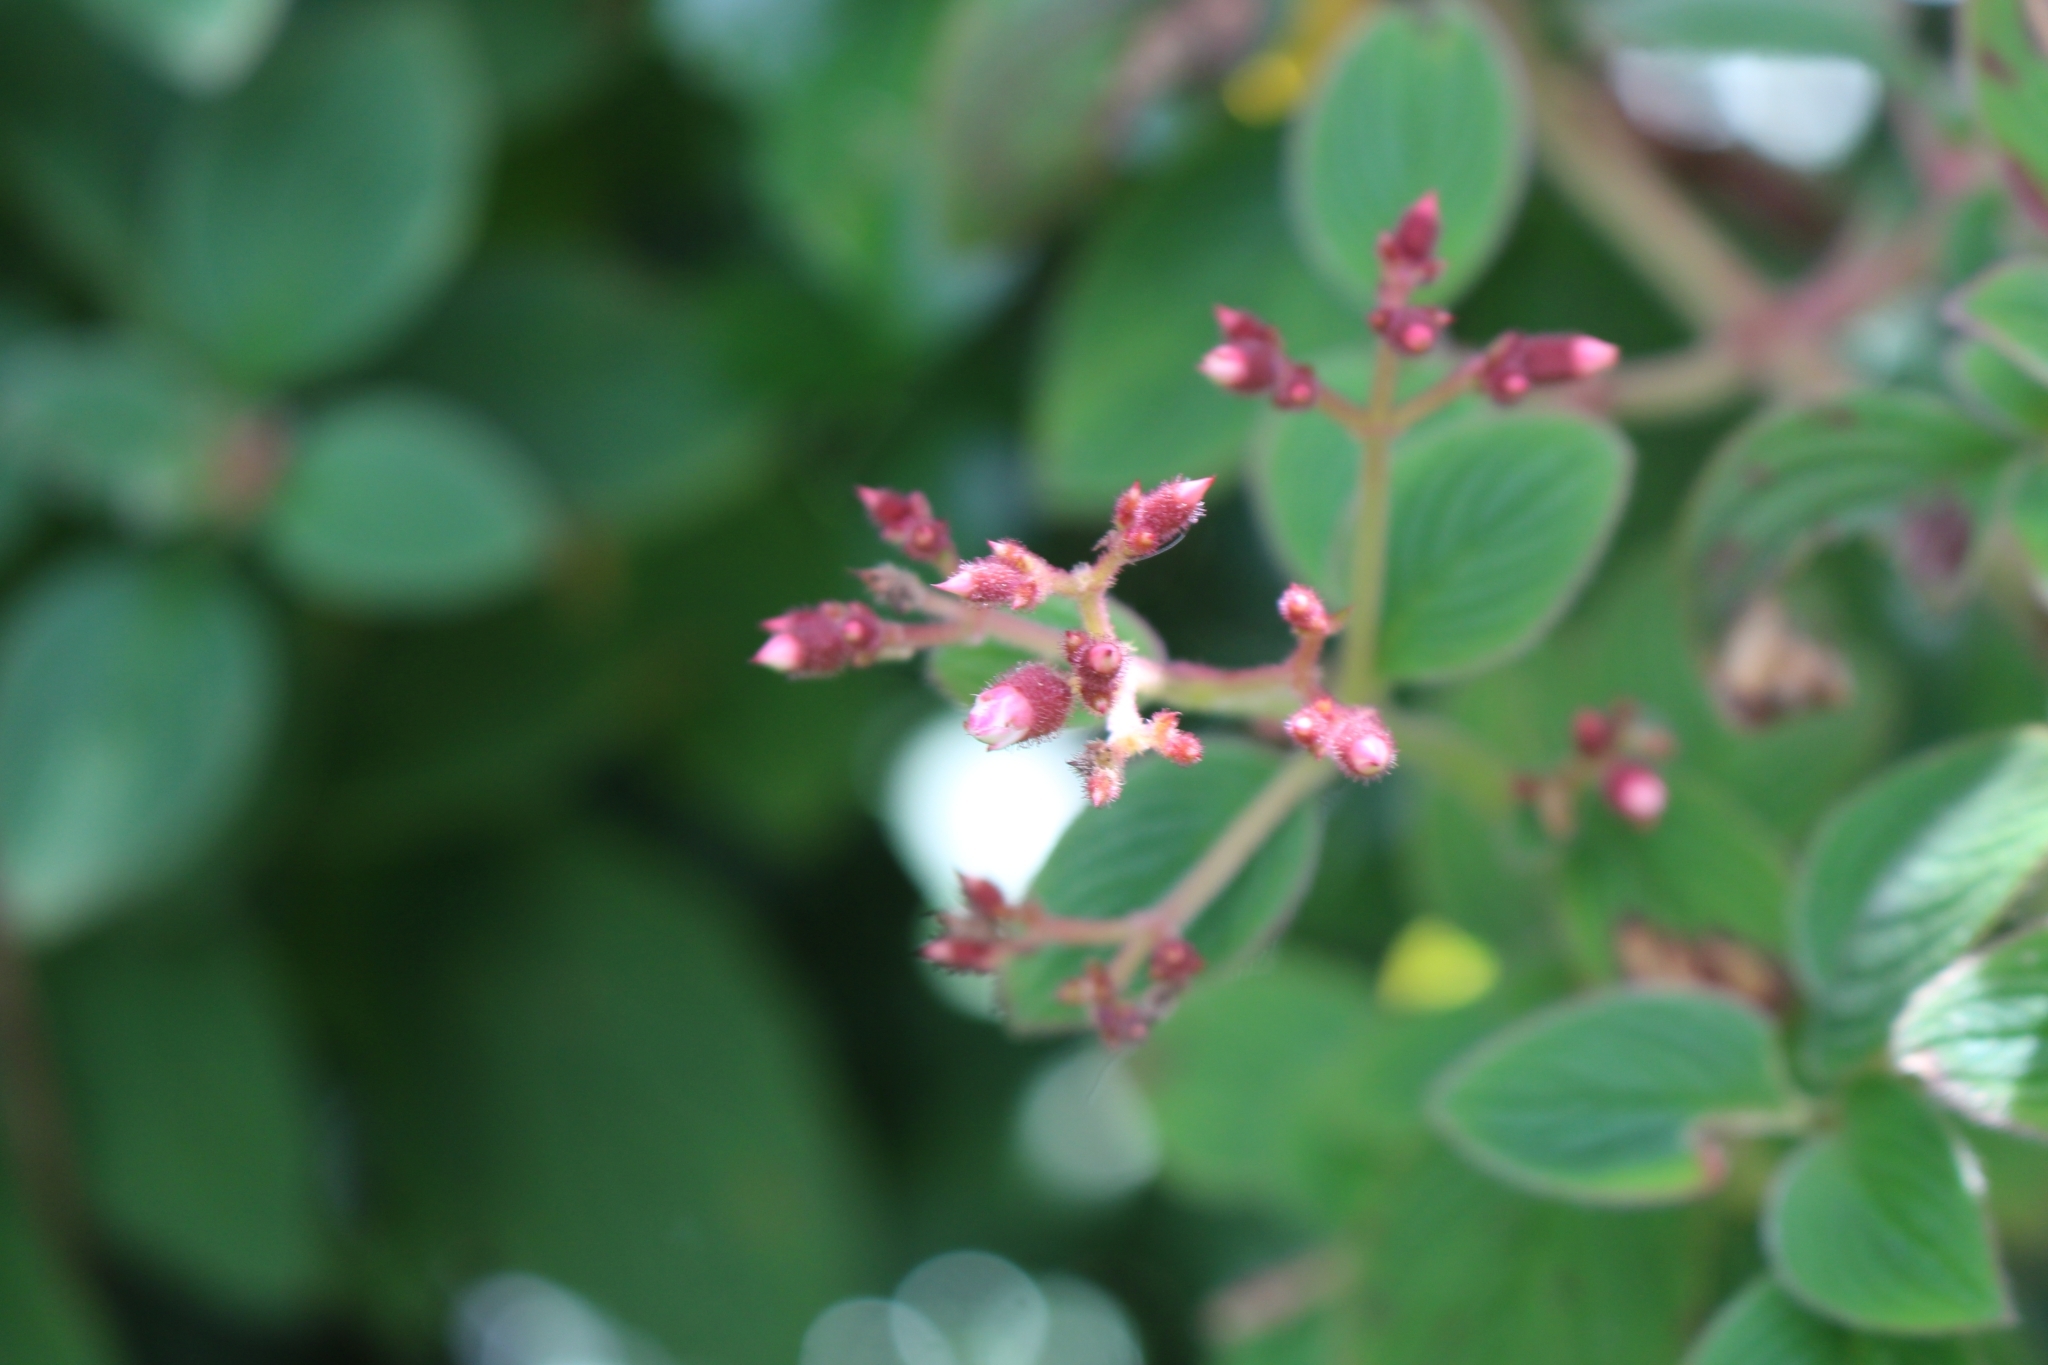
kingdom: Plantae
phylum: Tracheophyta
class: Magnoliopsida
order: Myrtales
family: Melastomataceae
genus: Heterocentron
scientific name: Heterocentron glandulosum
